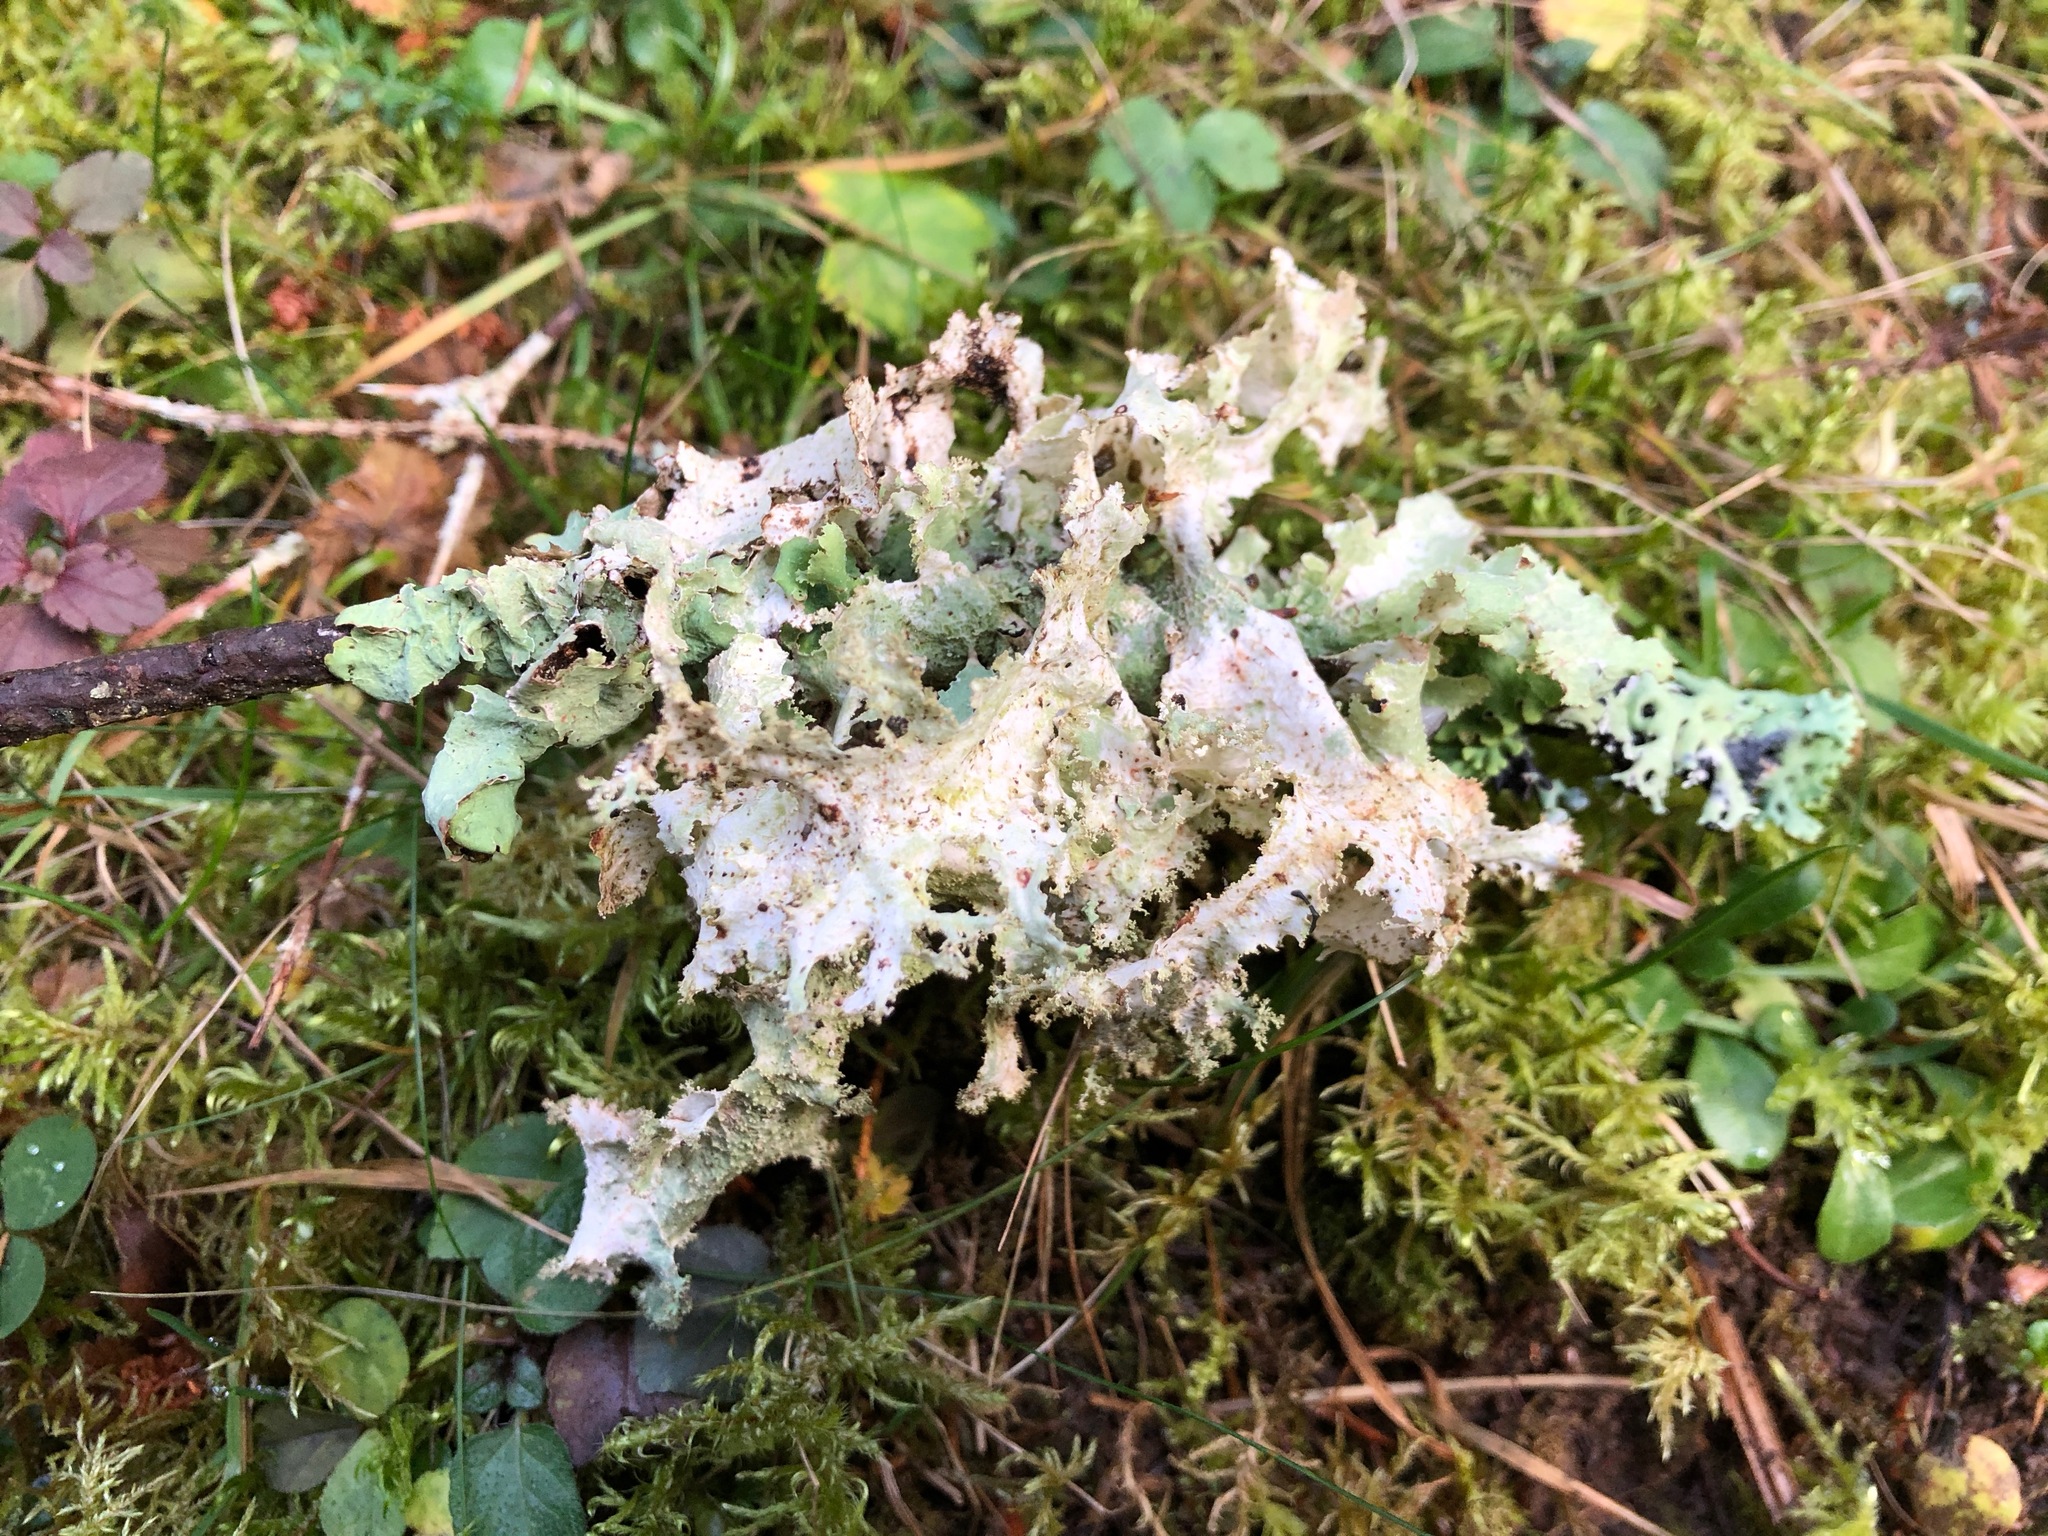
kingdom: Fungi
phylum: Ascomycota
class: Lecanoromycetes
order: Lecanorales
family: Parmeliaceae
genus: Platismatia
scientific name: Platismatia glauca
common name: Varied rag lichen
